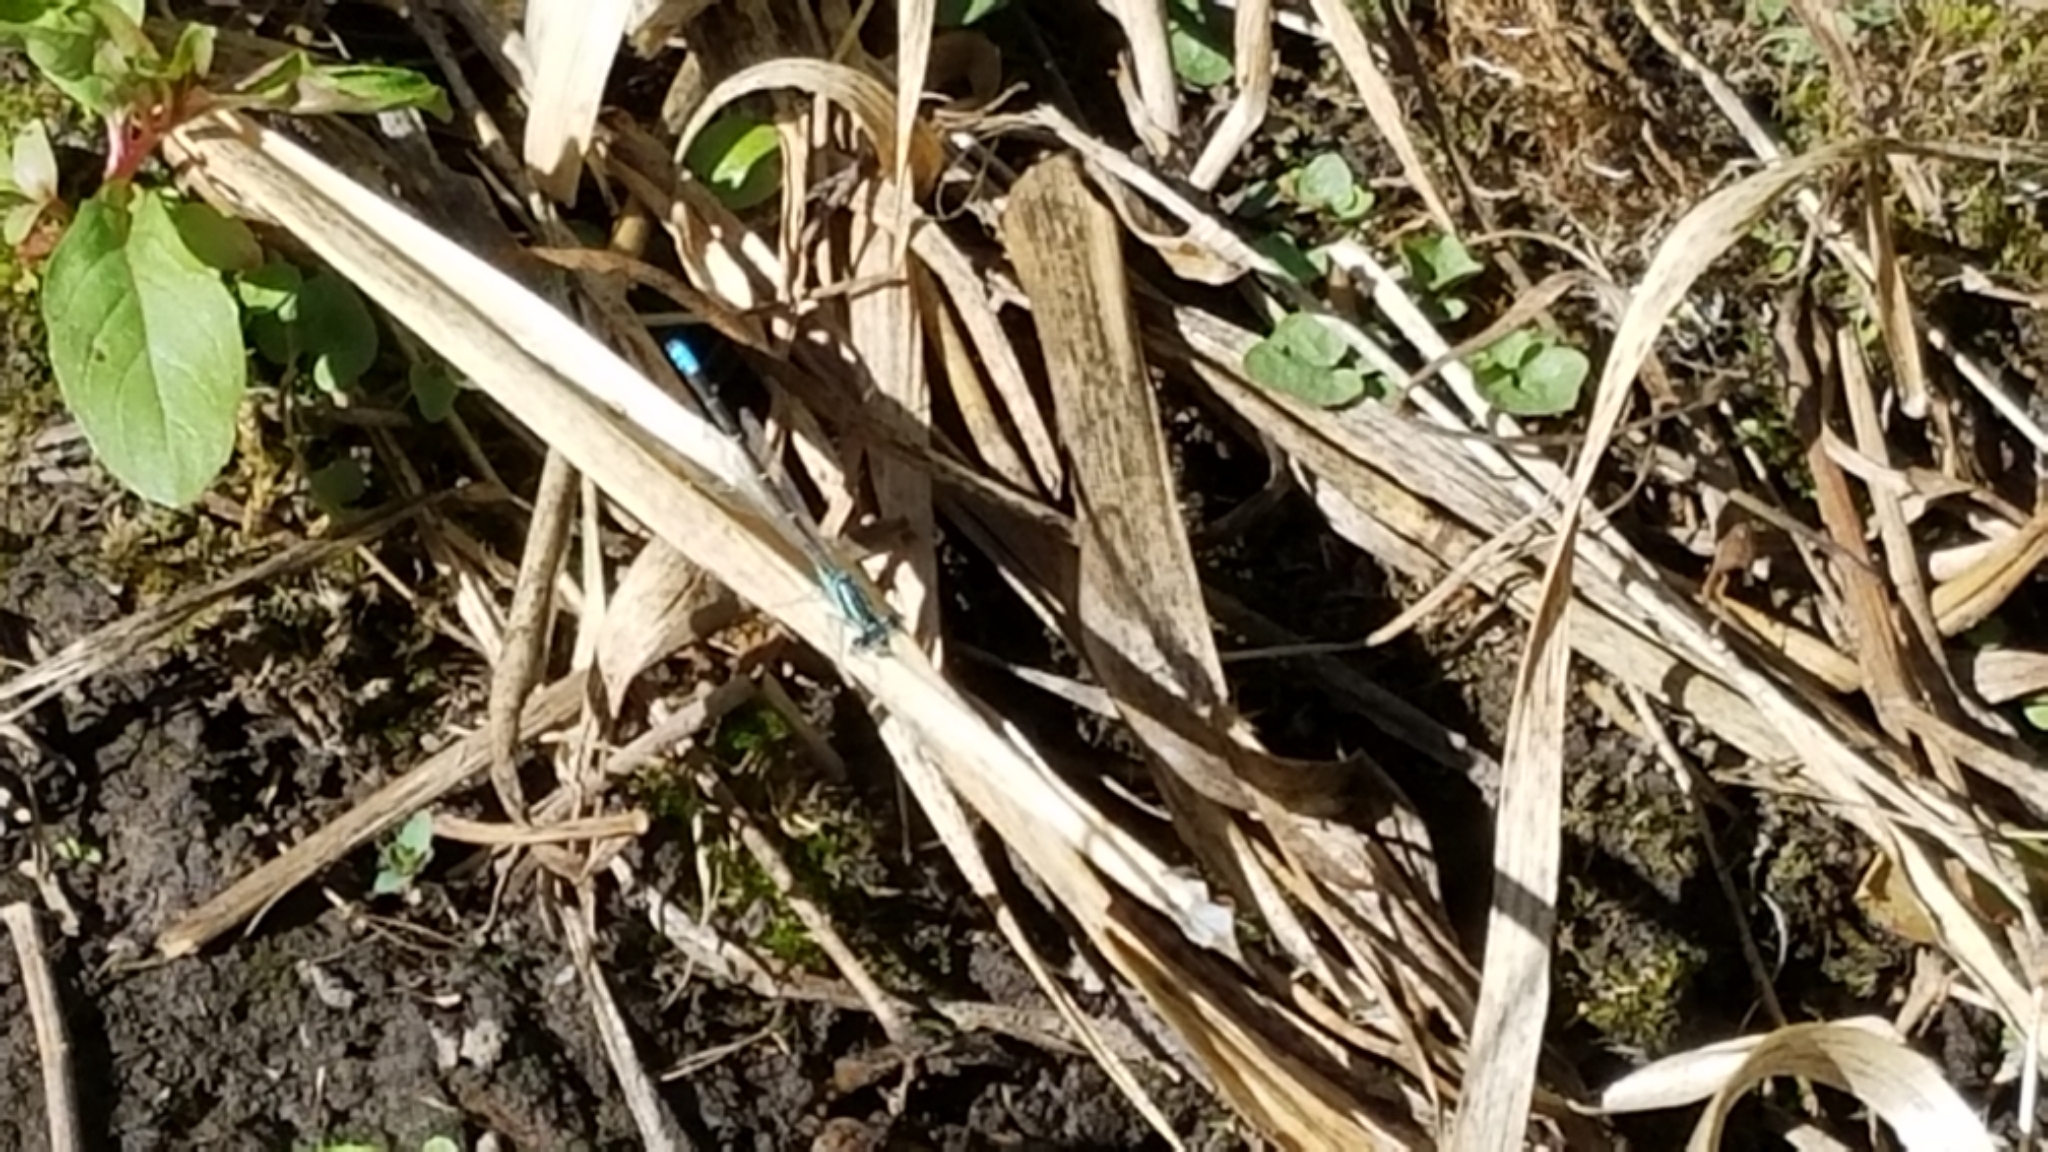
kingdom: Animalia
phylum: Arthropoda
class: Insecta
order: Odonata
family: Coenagrionidae
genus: Ischnura
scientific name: Ischnura perparva
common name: Western forktail
